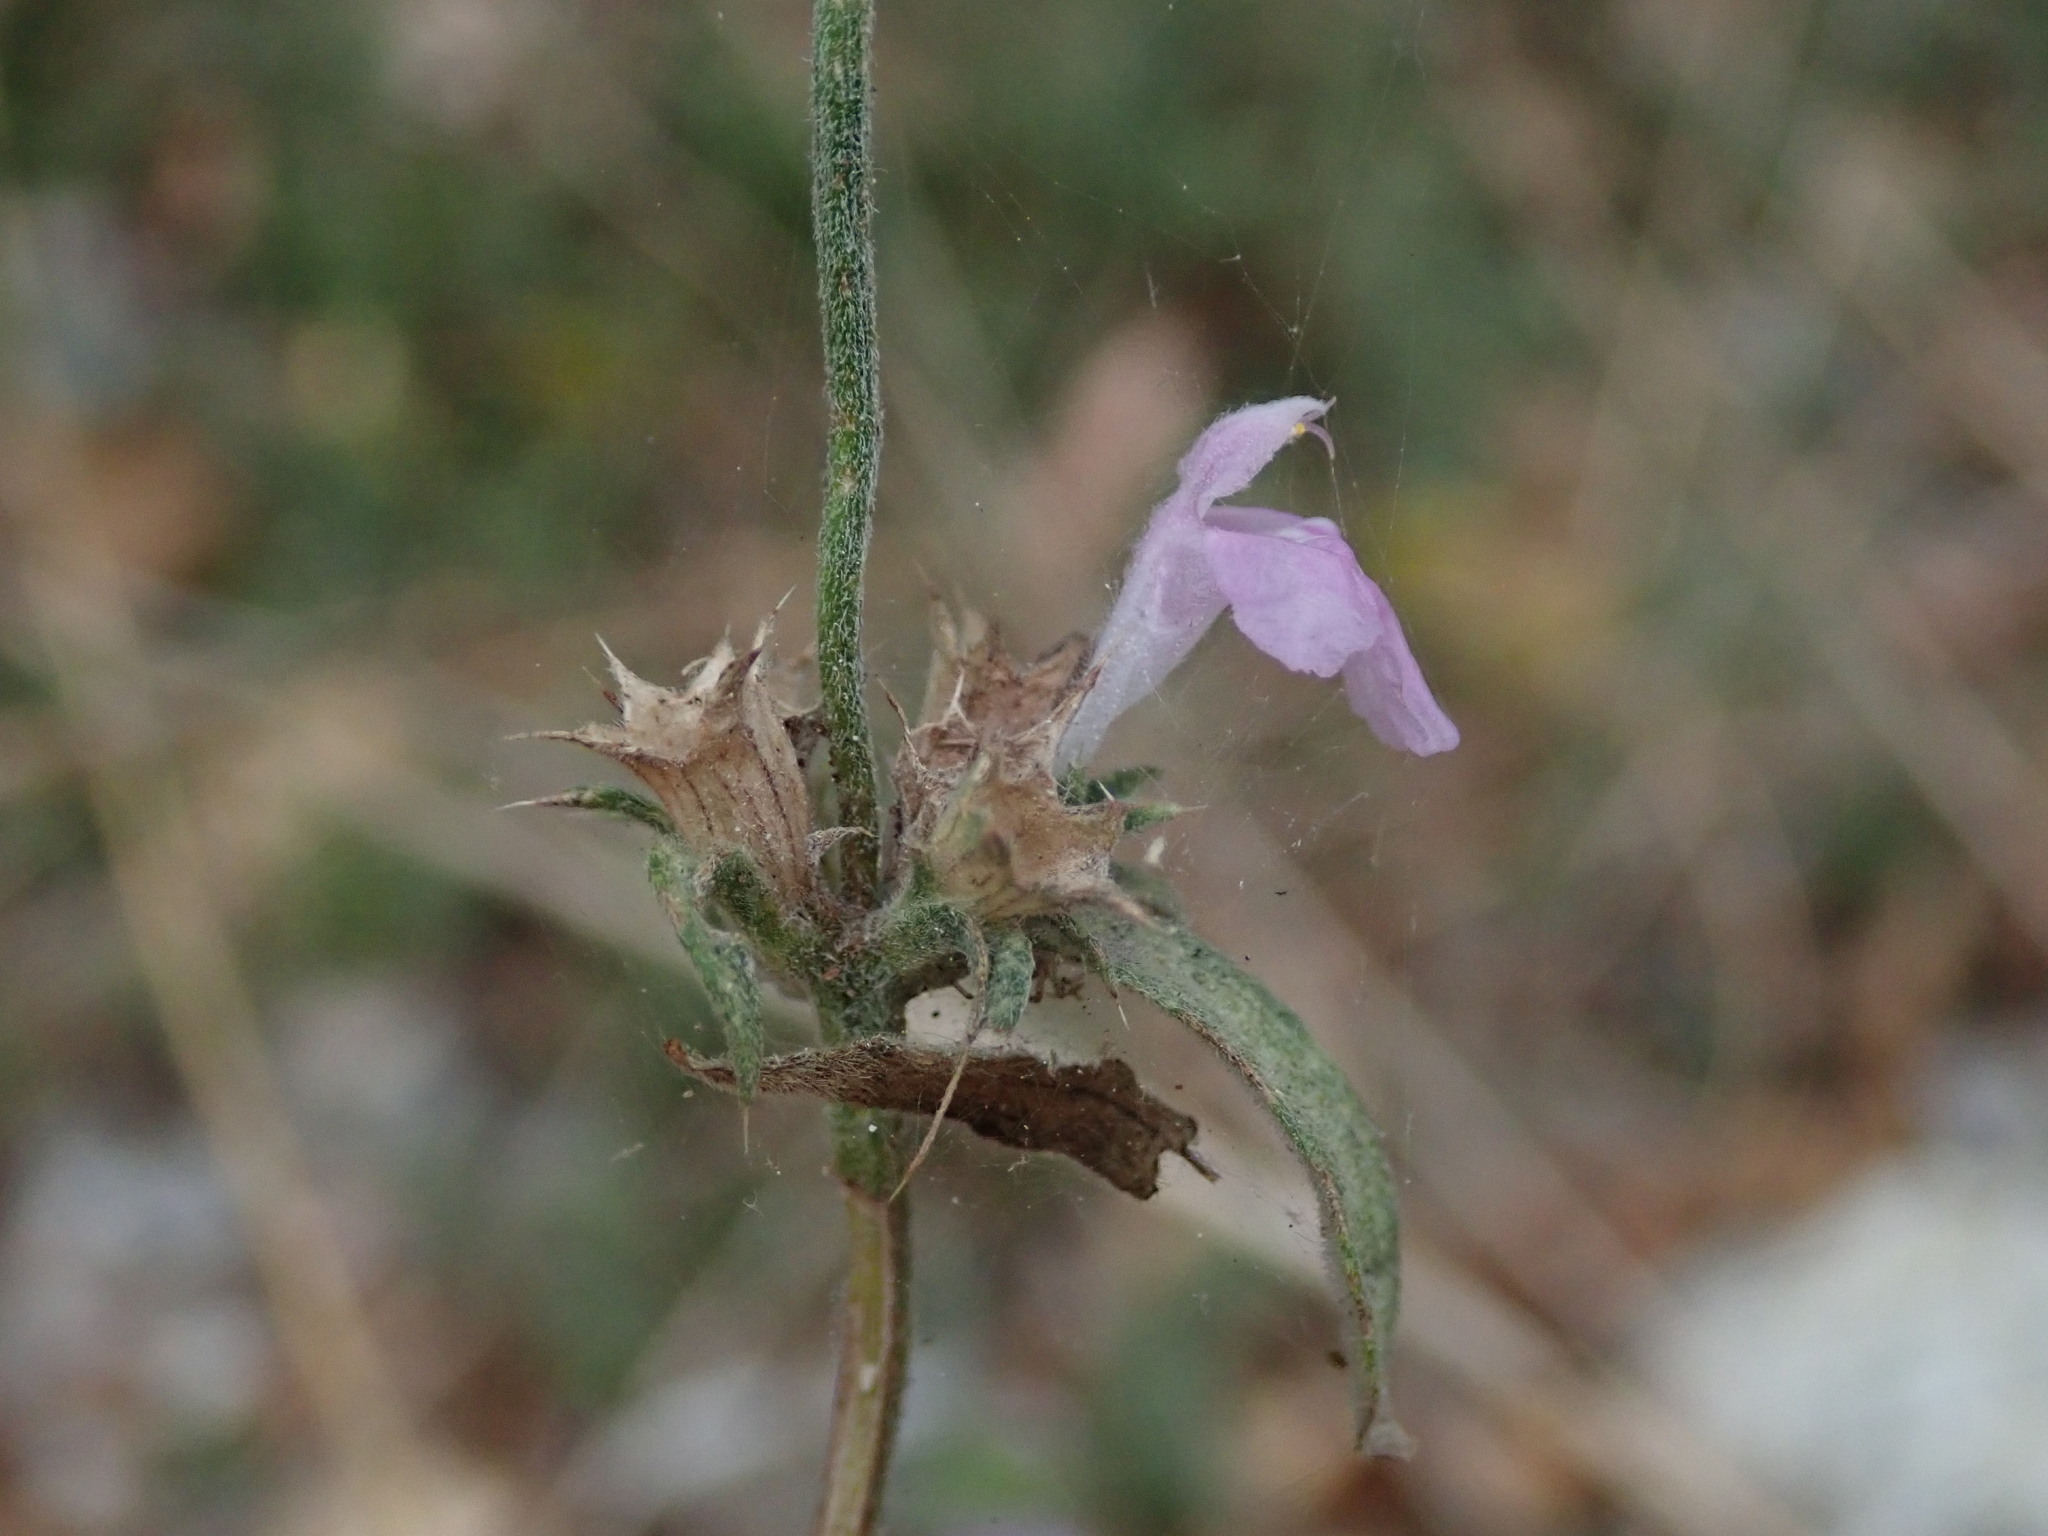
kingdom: Plantae
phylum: Tracheophyta
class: Magnoliopsida
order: Lamiales
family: Lamiaceae
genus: Galeopsis
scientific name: Galeopsis angustifolia
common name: Red hemp-nettle
